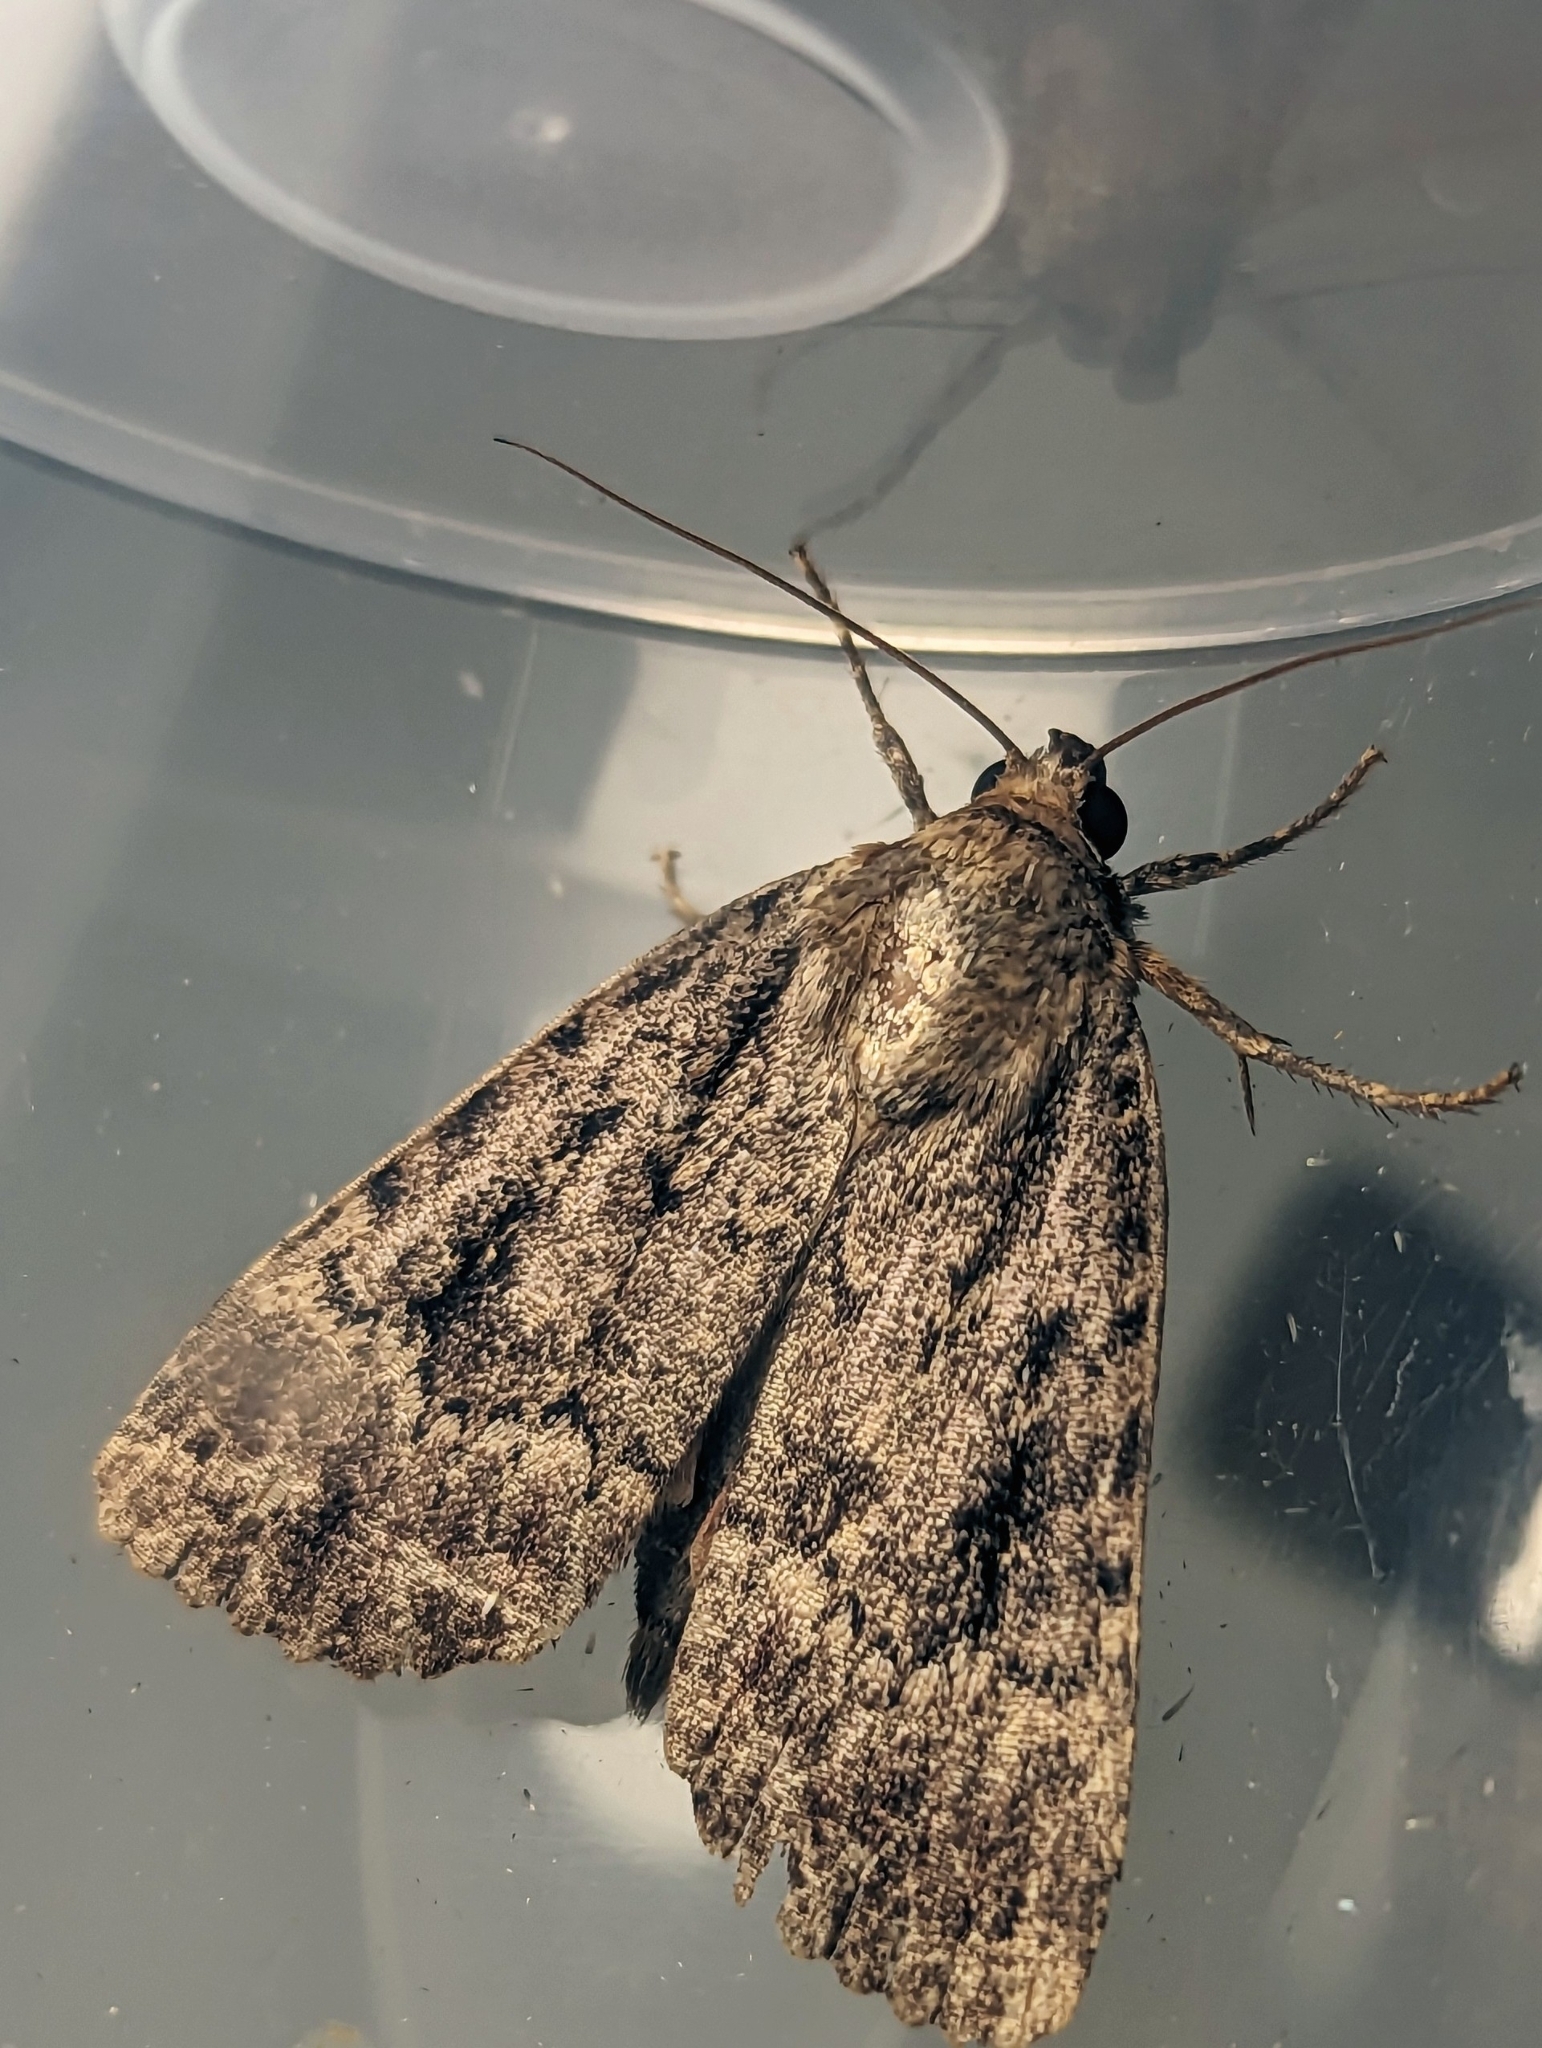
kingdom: Animalia
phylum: Arthropoda
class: Insecta
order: Lepidoptera
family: Noctuidae
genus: Amphipyra
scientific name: Amphipyra pyramidea
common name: Copper underwing
